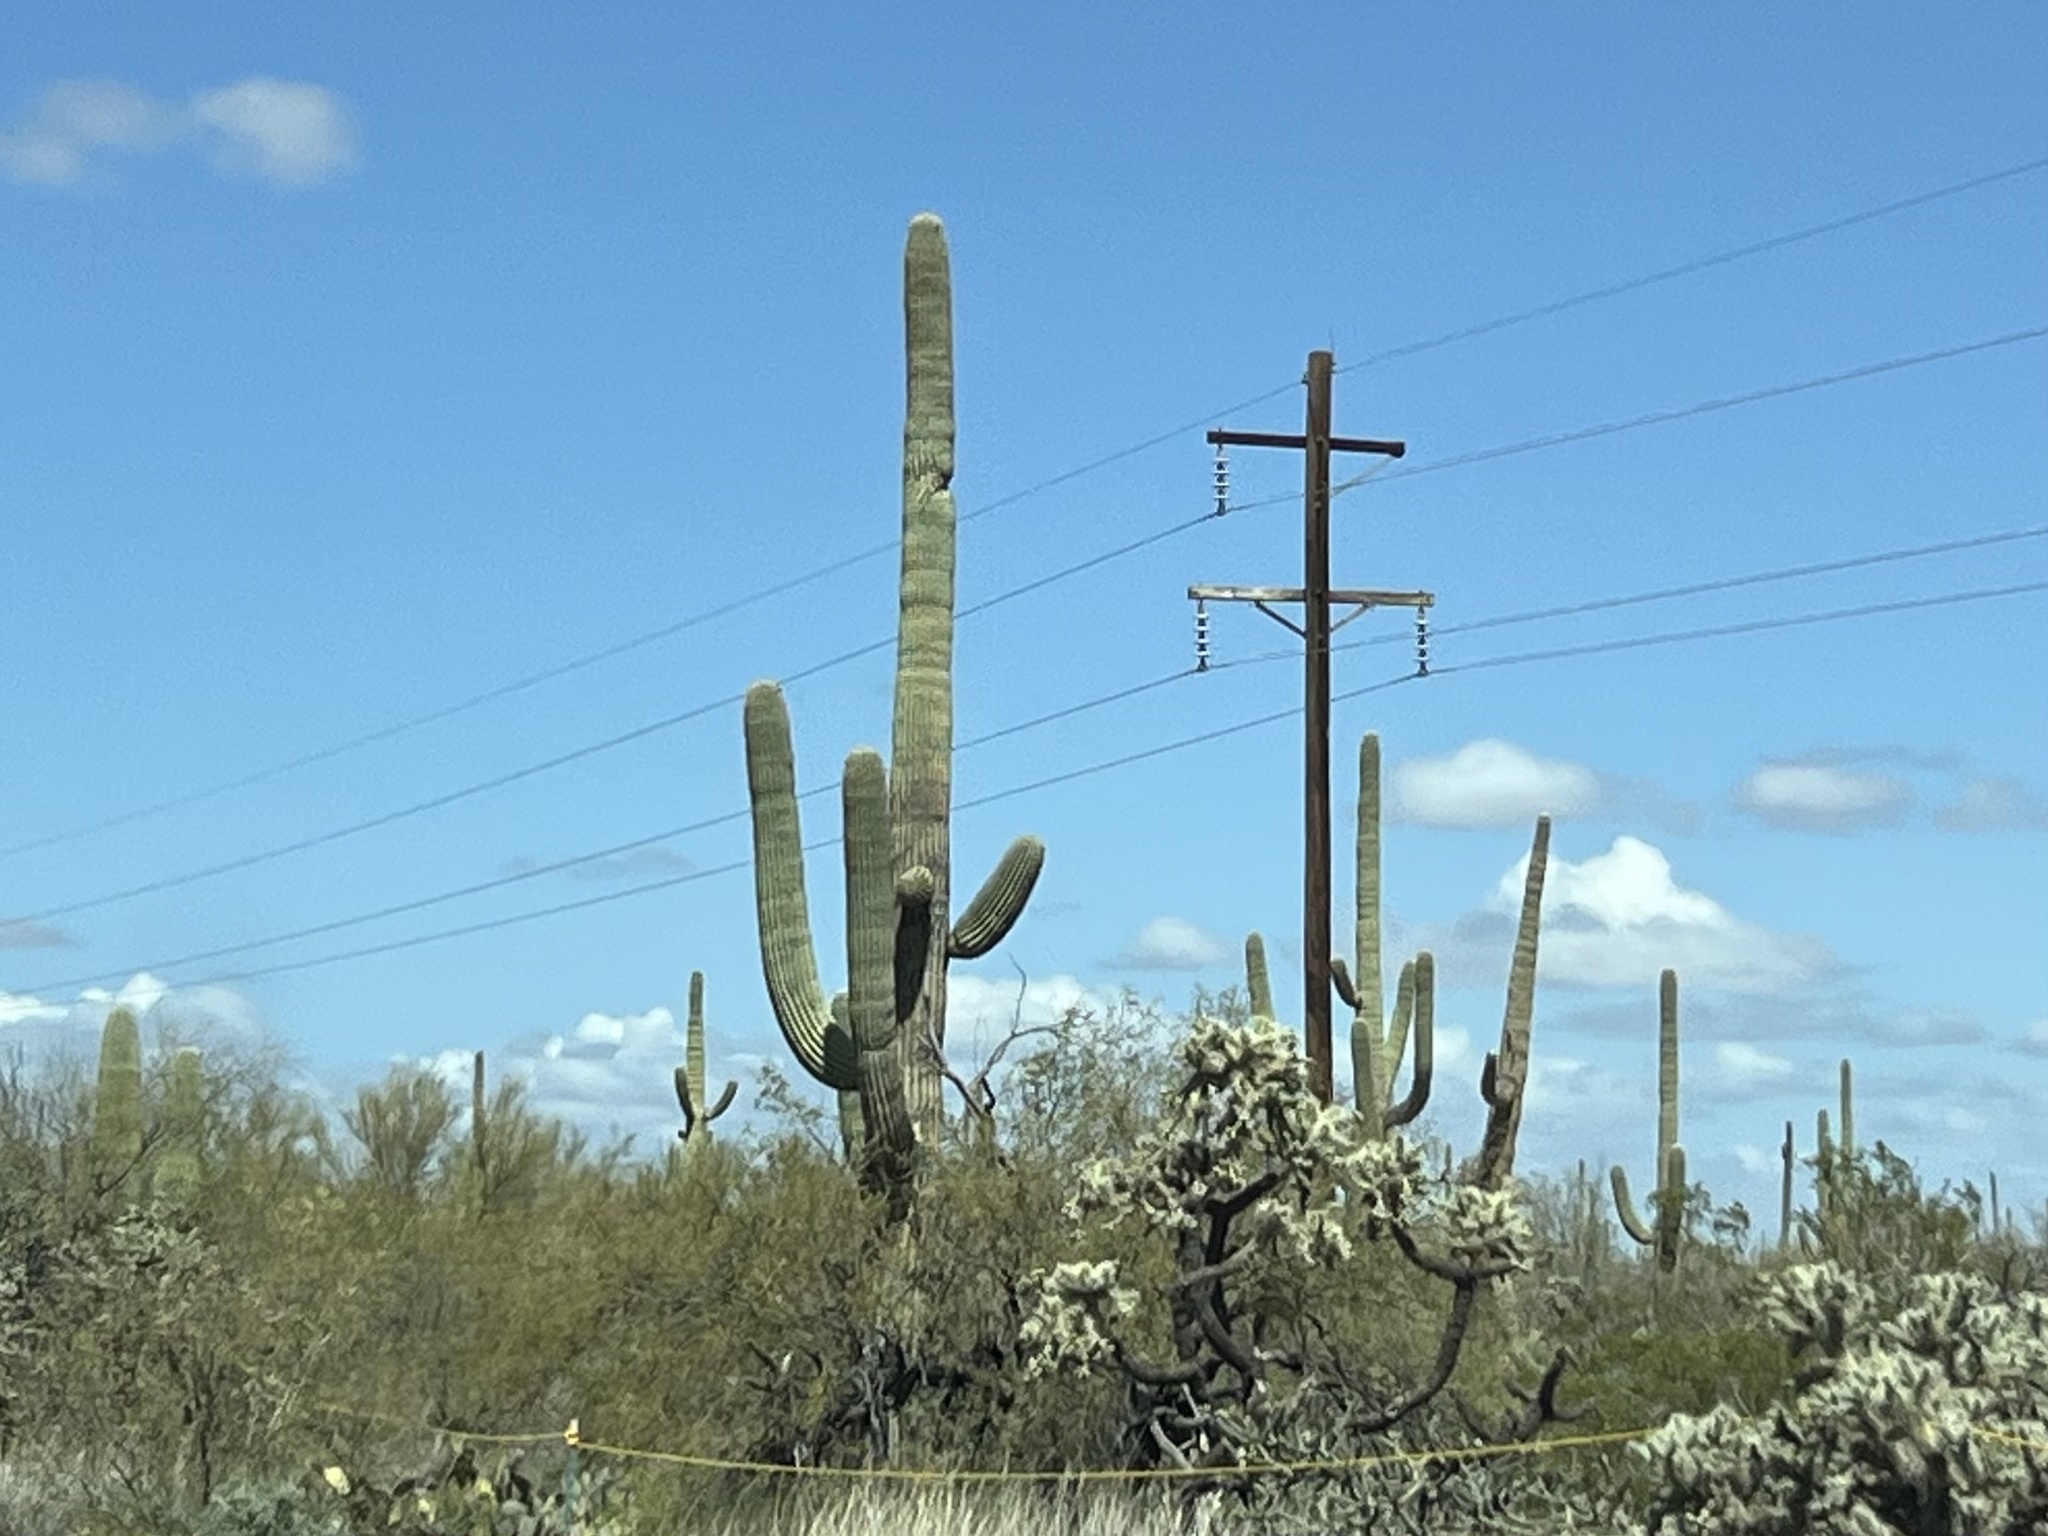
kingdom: Plantae
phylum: Tracheophyta
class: Magnoliopsida
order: Caryophyllales
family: Cactaceae
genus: Carnegiea
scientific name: Carnegiea gigantea
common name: Saguaro
